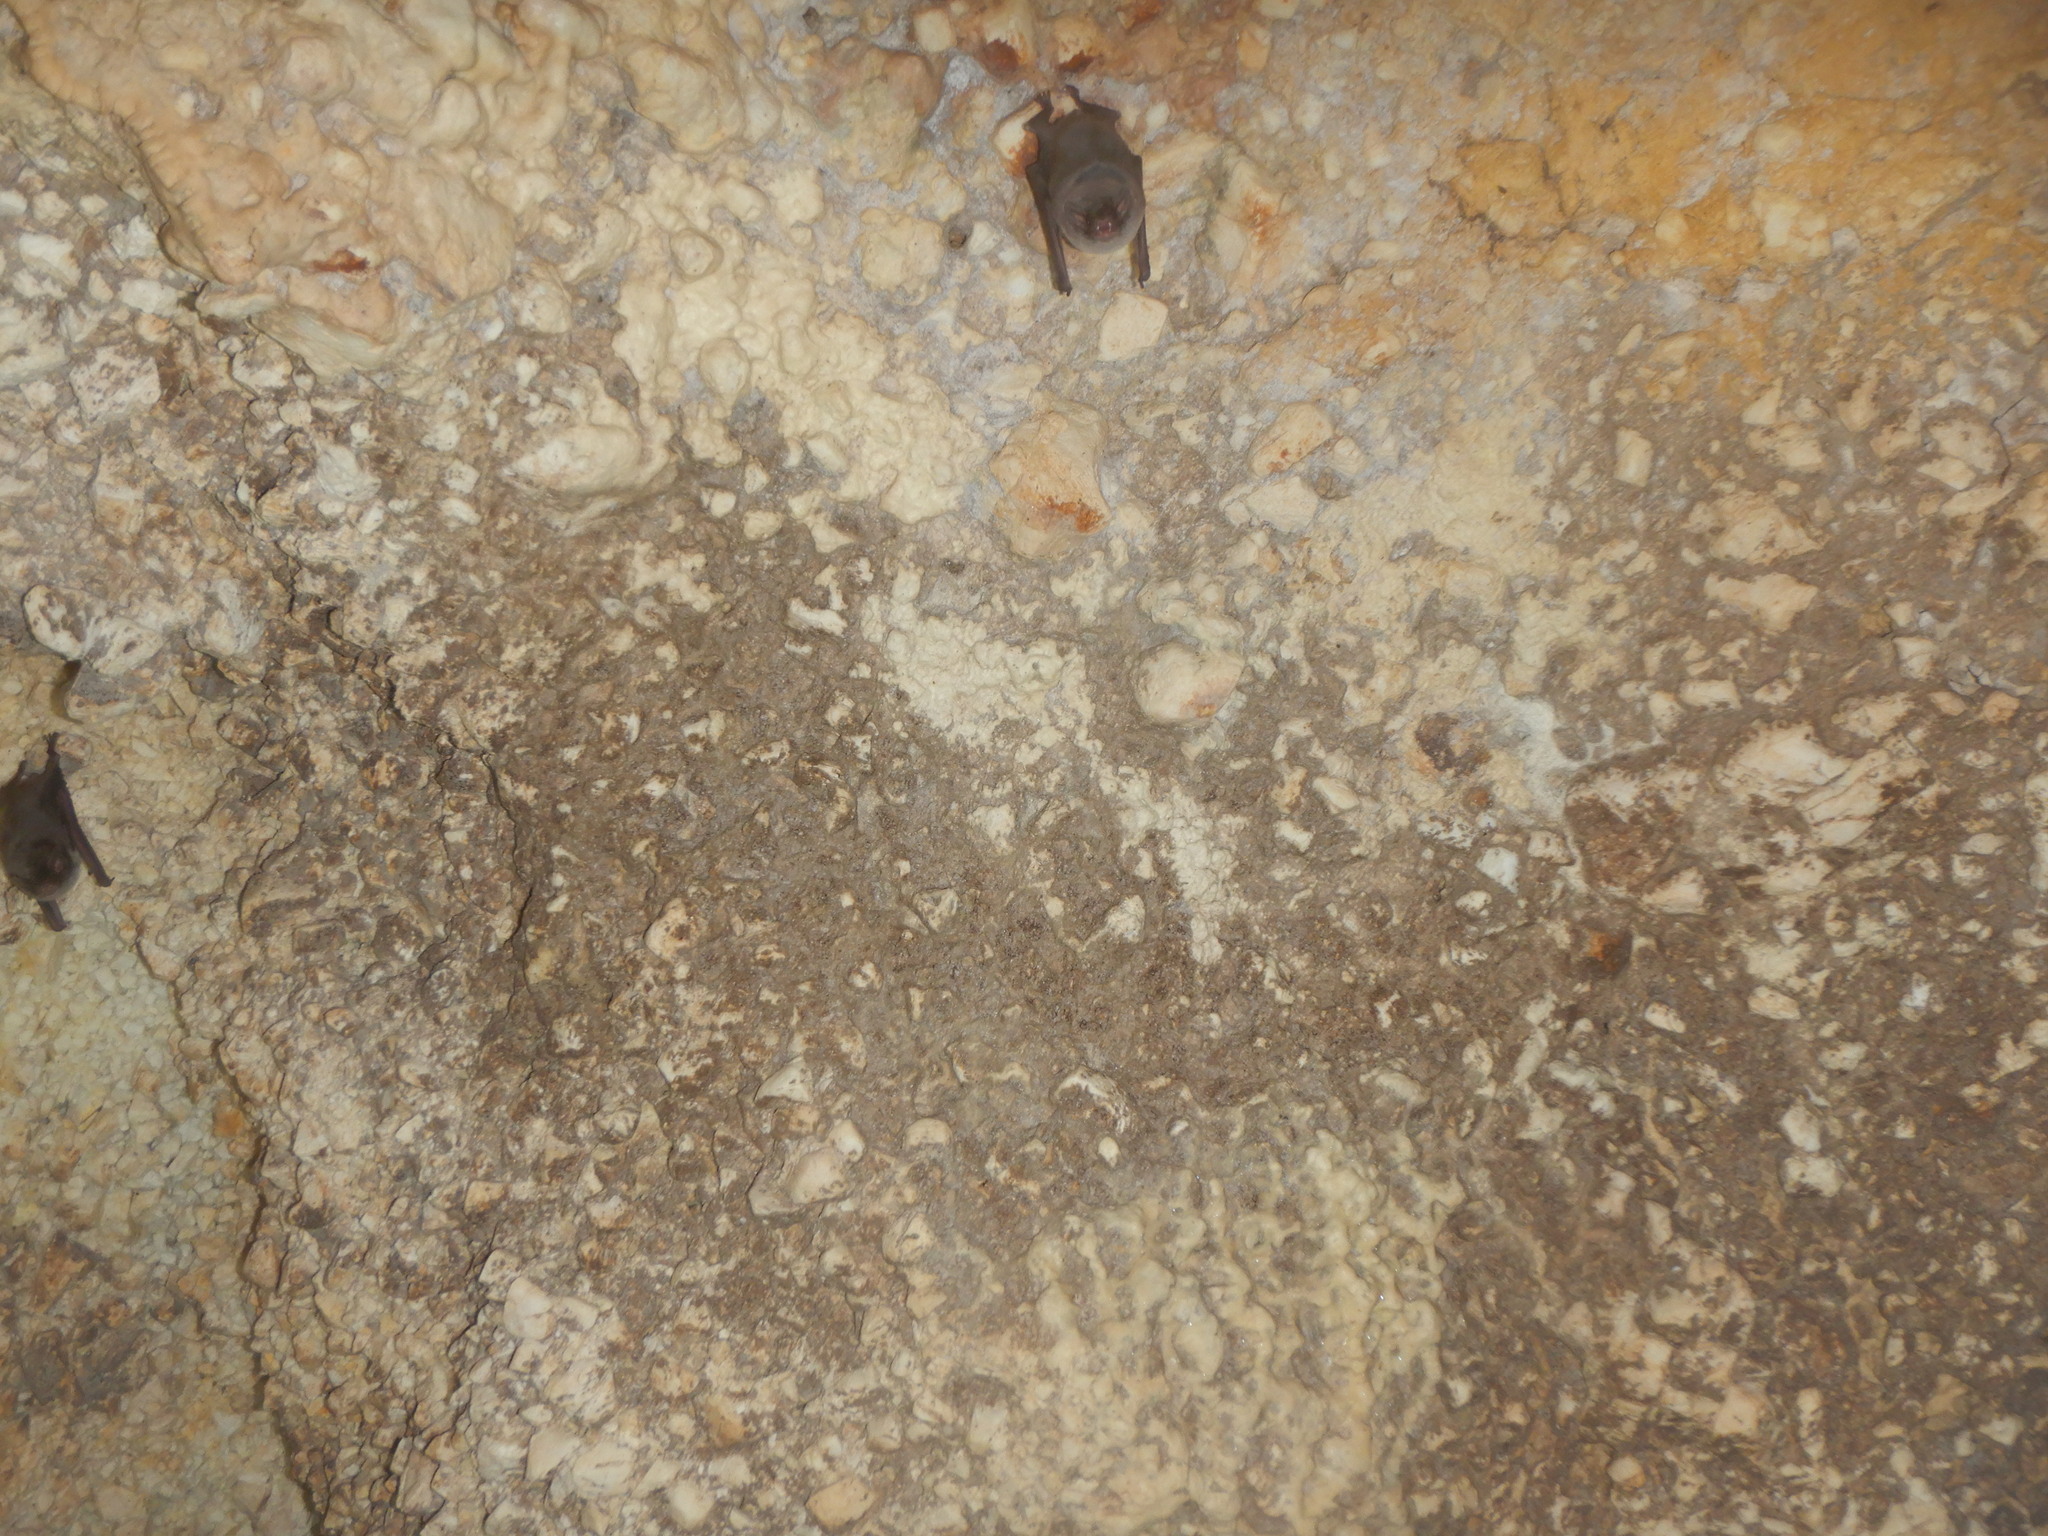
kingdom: Animalia
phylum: Chordata
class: Mammalia
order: Chiroptera
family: Miniopteridae
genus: Miniopterus
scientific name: Miniopterus schreibersii
